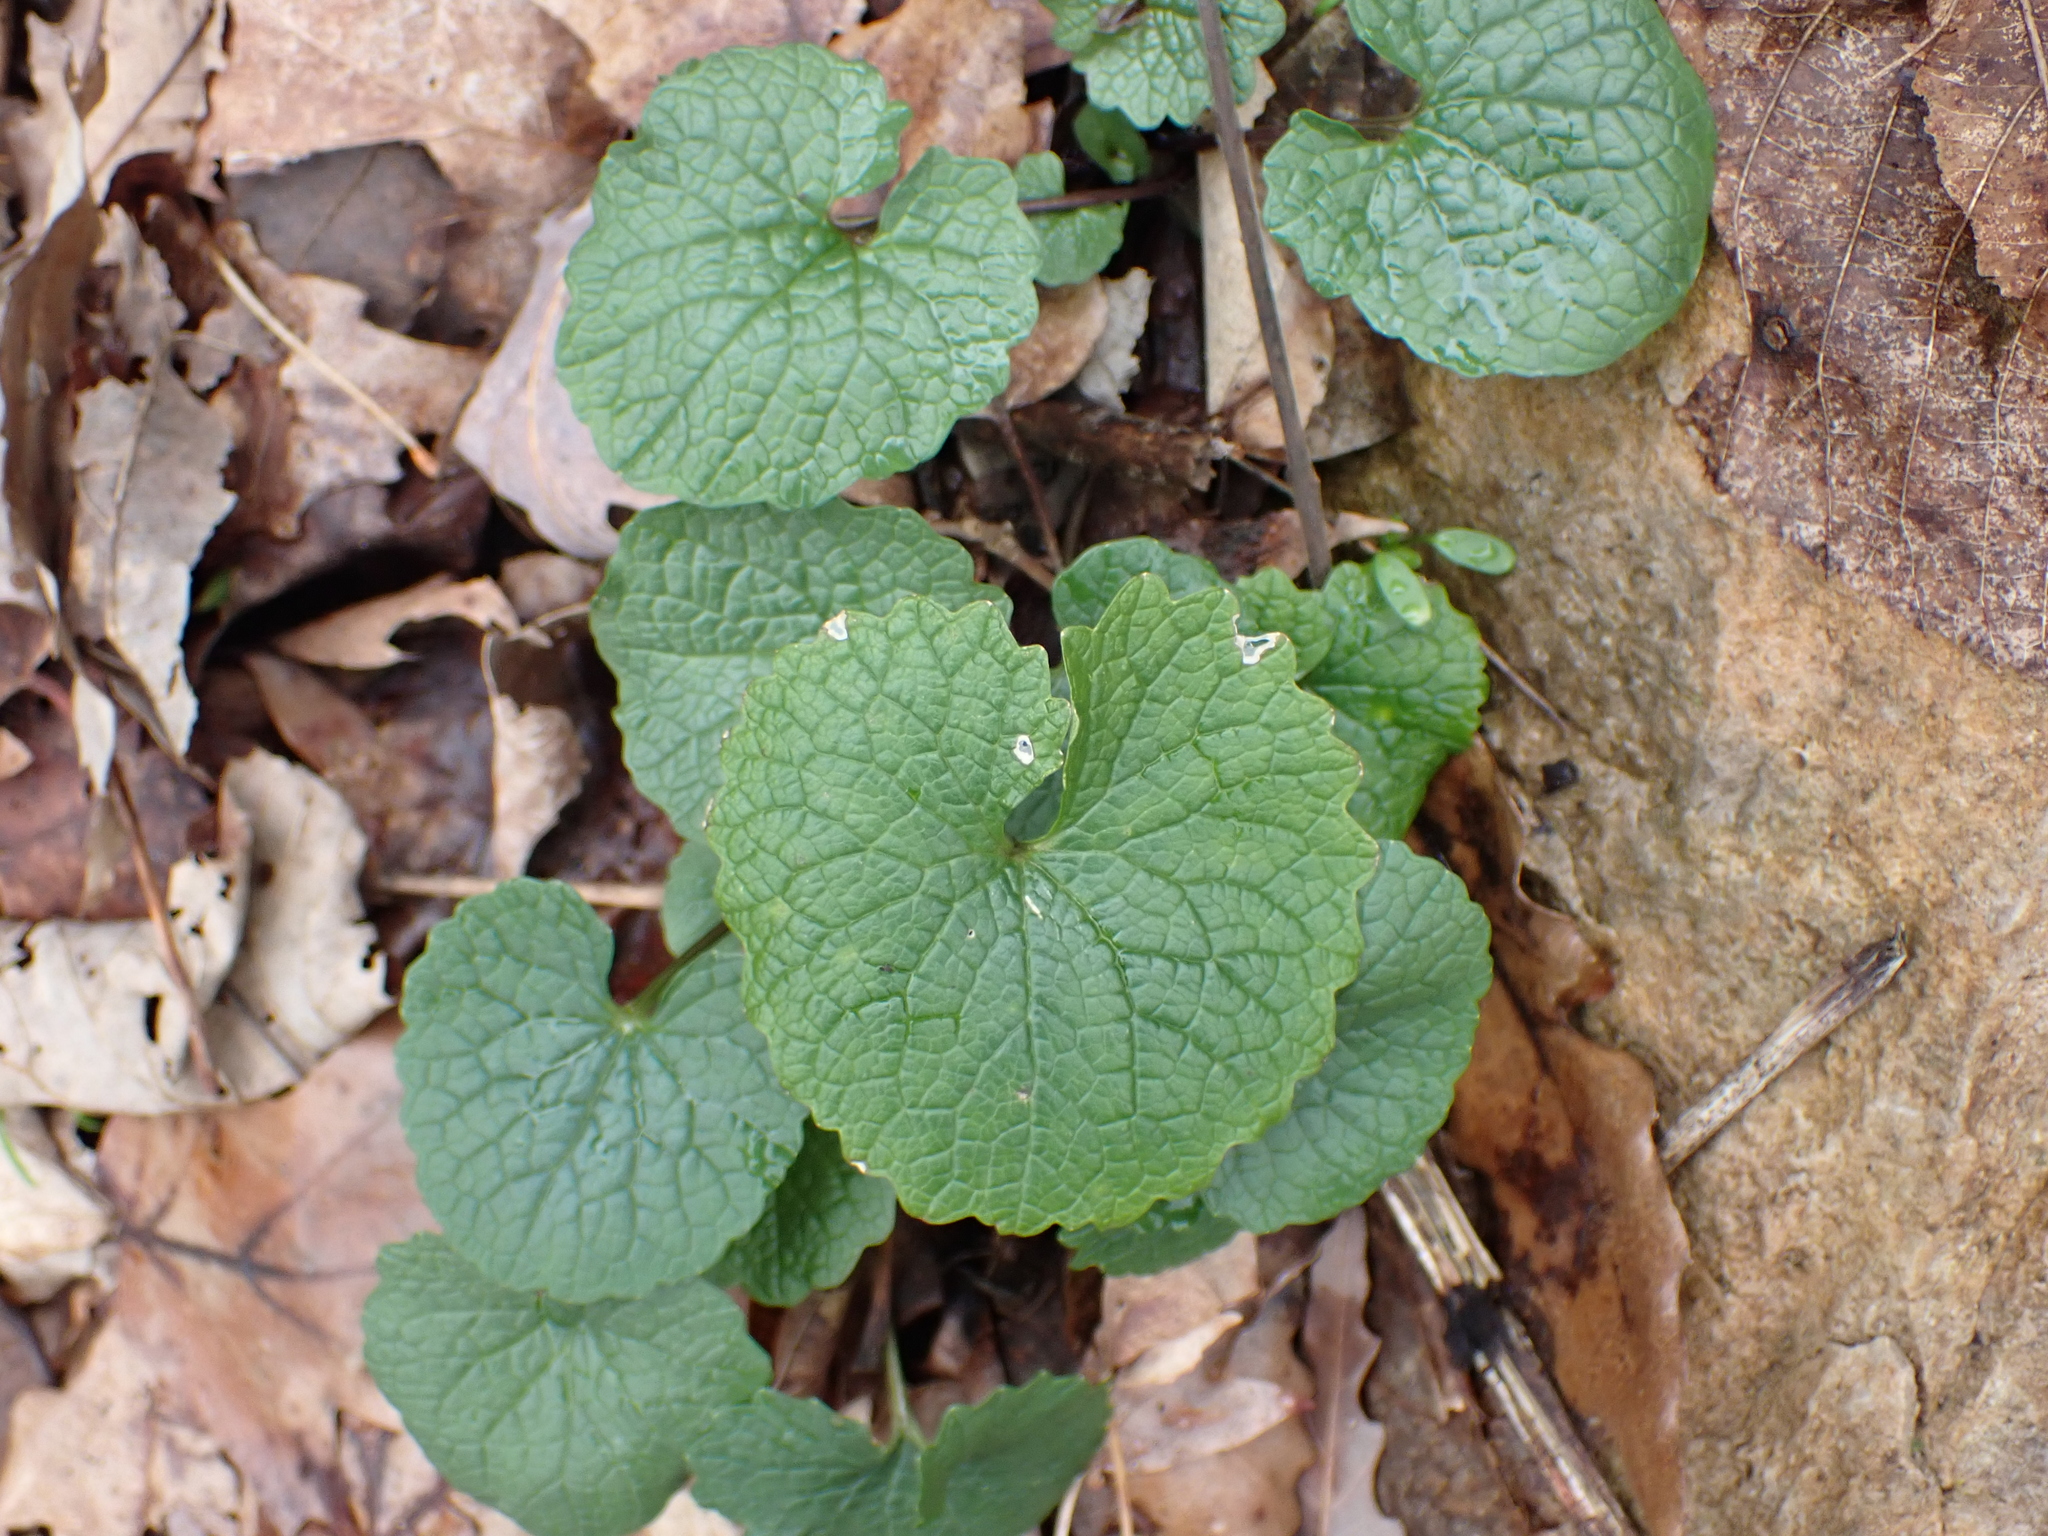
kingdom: Plantae
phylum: Tracheophyta
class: Magnoliopsida
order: Brassicales
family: Brassicaceae
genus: Alliaria
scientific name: Alliaria petiolata
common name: Garlic mustard
